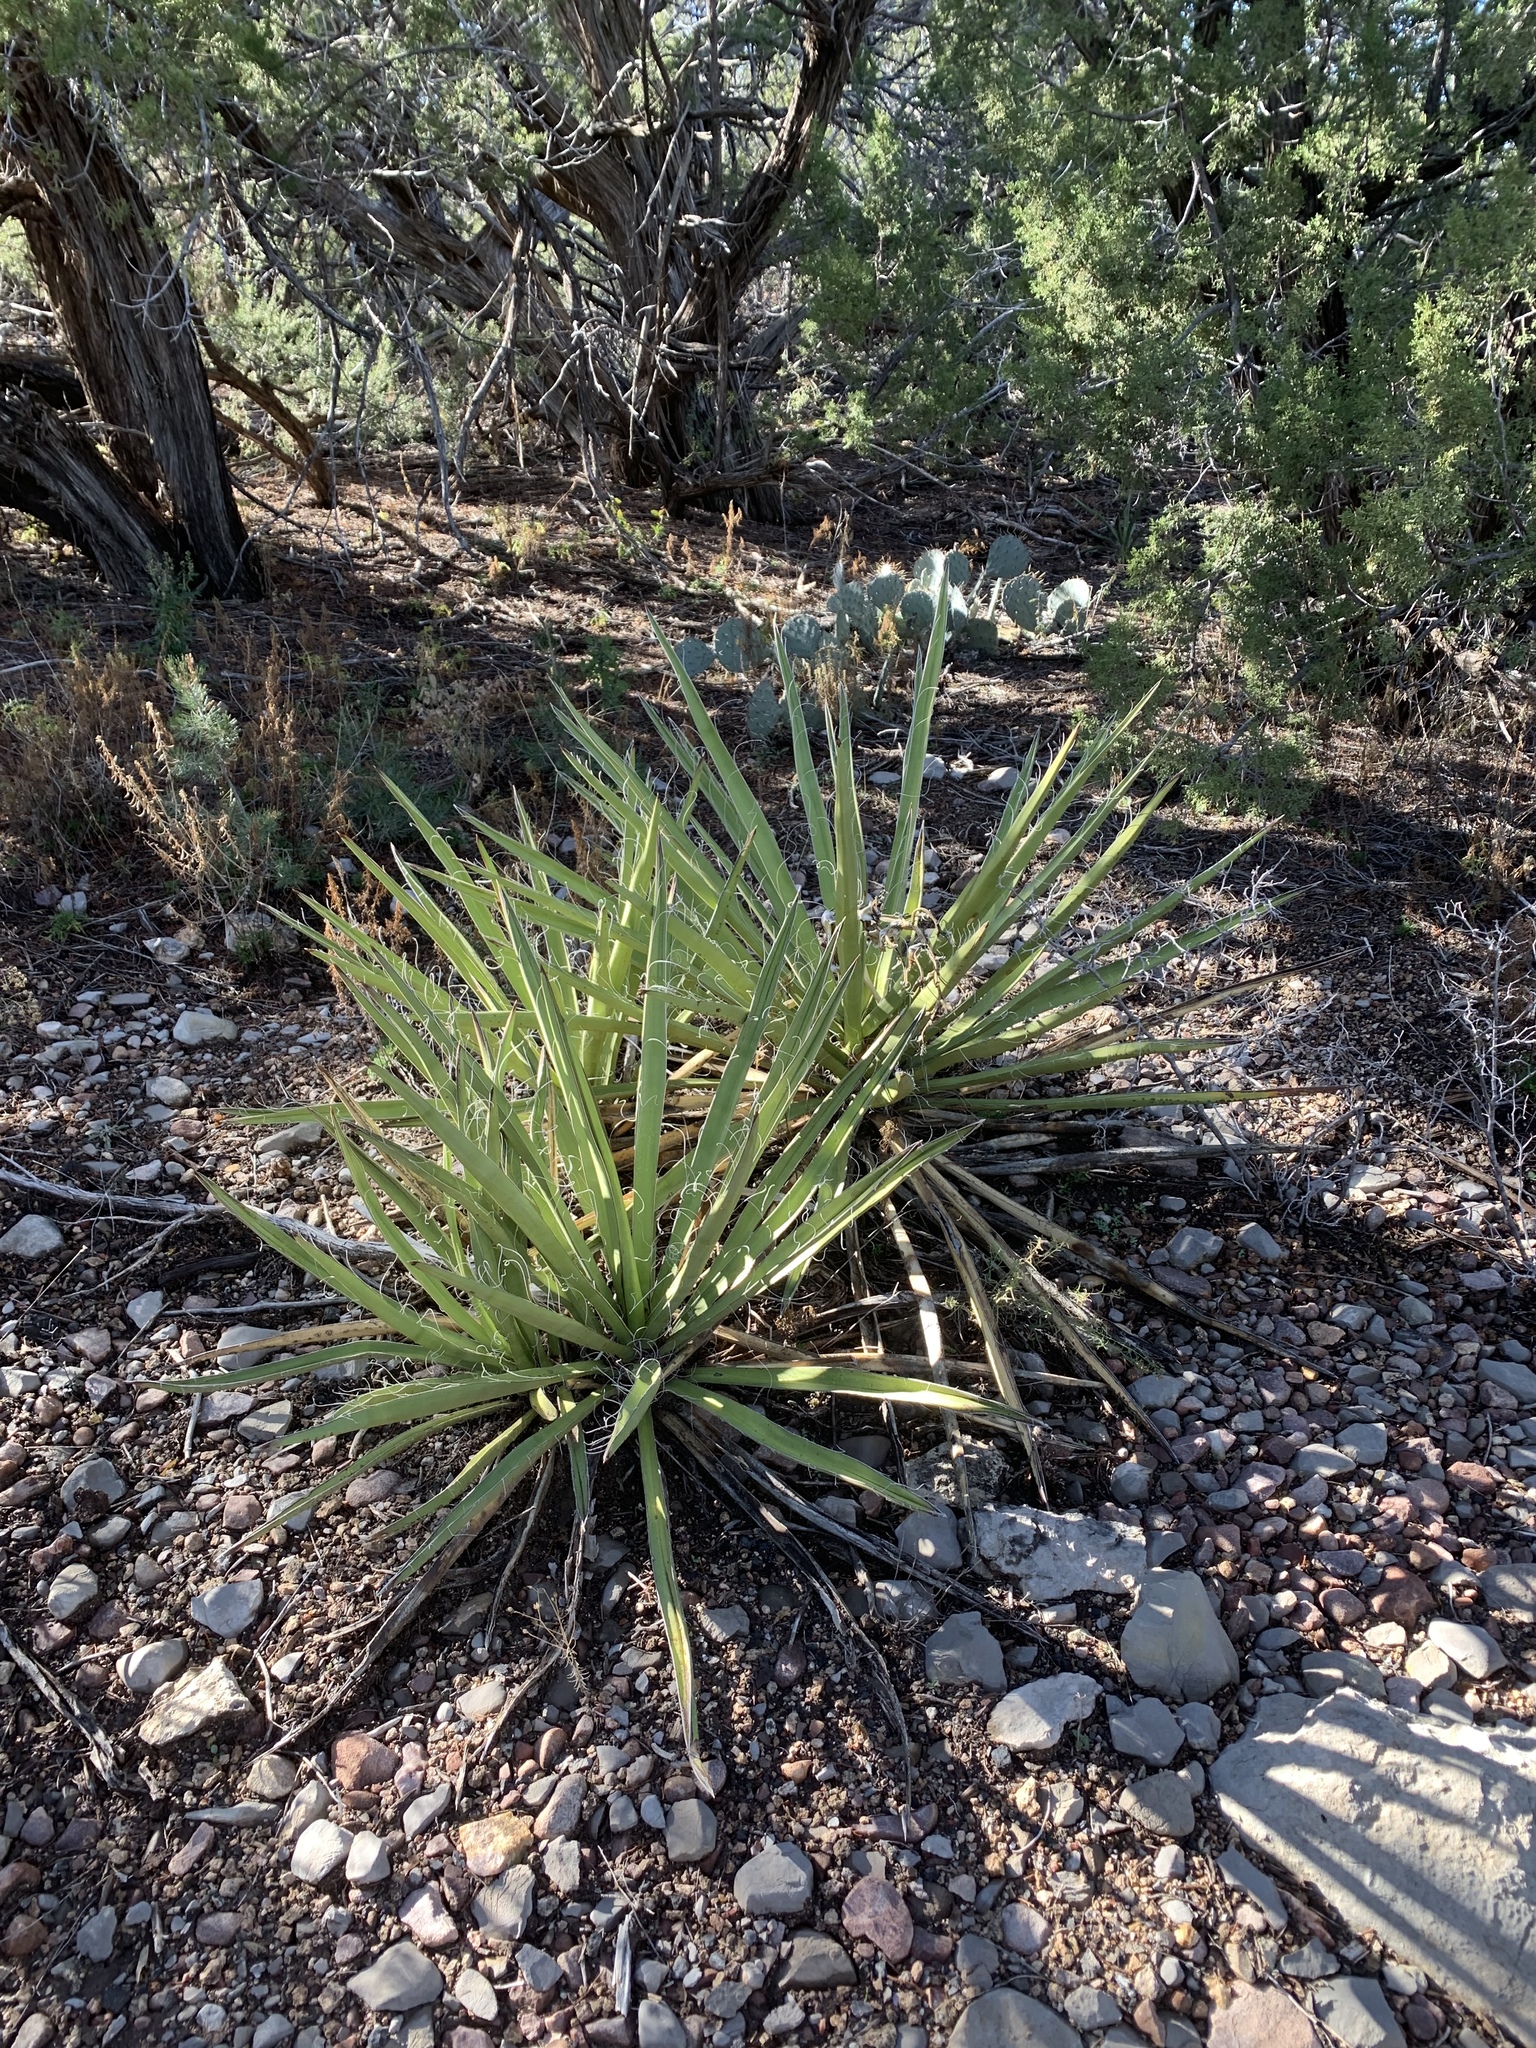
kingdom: Plantae
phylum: Tracheophyta
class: Liliopsida
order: Asparagales
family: Asparagaceae
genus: Yucca
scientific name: Yucca baccata
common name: Banana yucca
